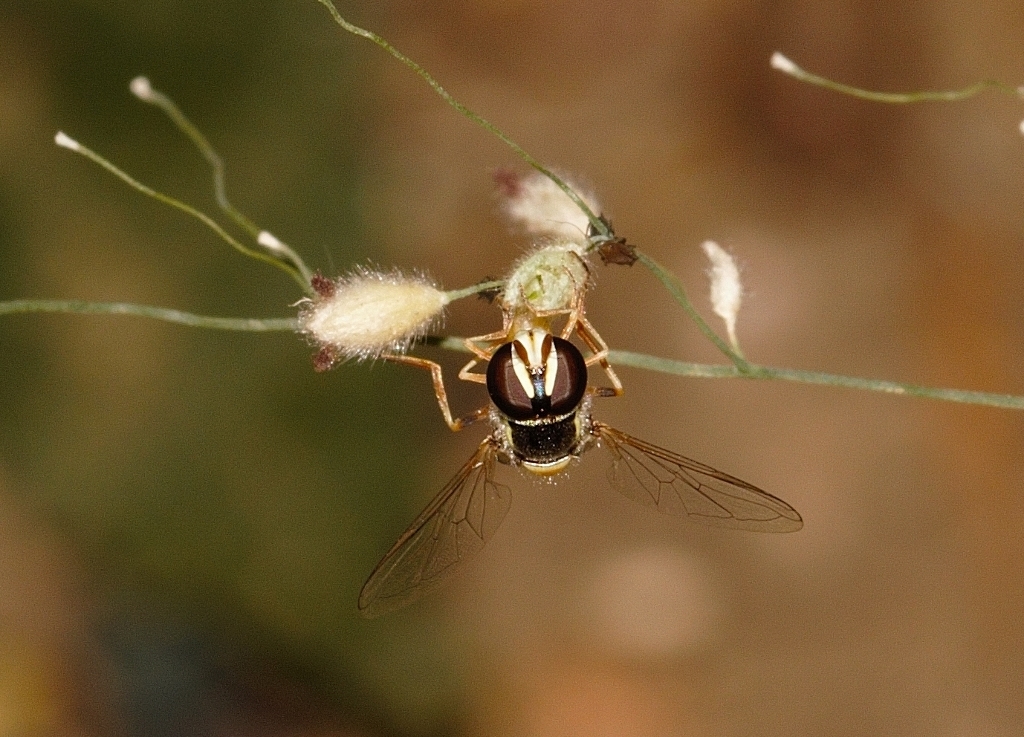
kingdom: Animalia
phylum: Arthropoda
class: Insecta
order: Diptera
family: Syrphidae
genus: Ischiodon
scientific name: Ischiodon aegyptius
